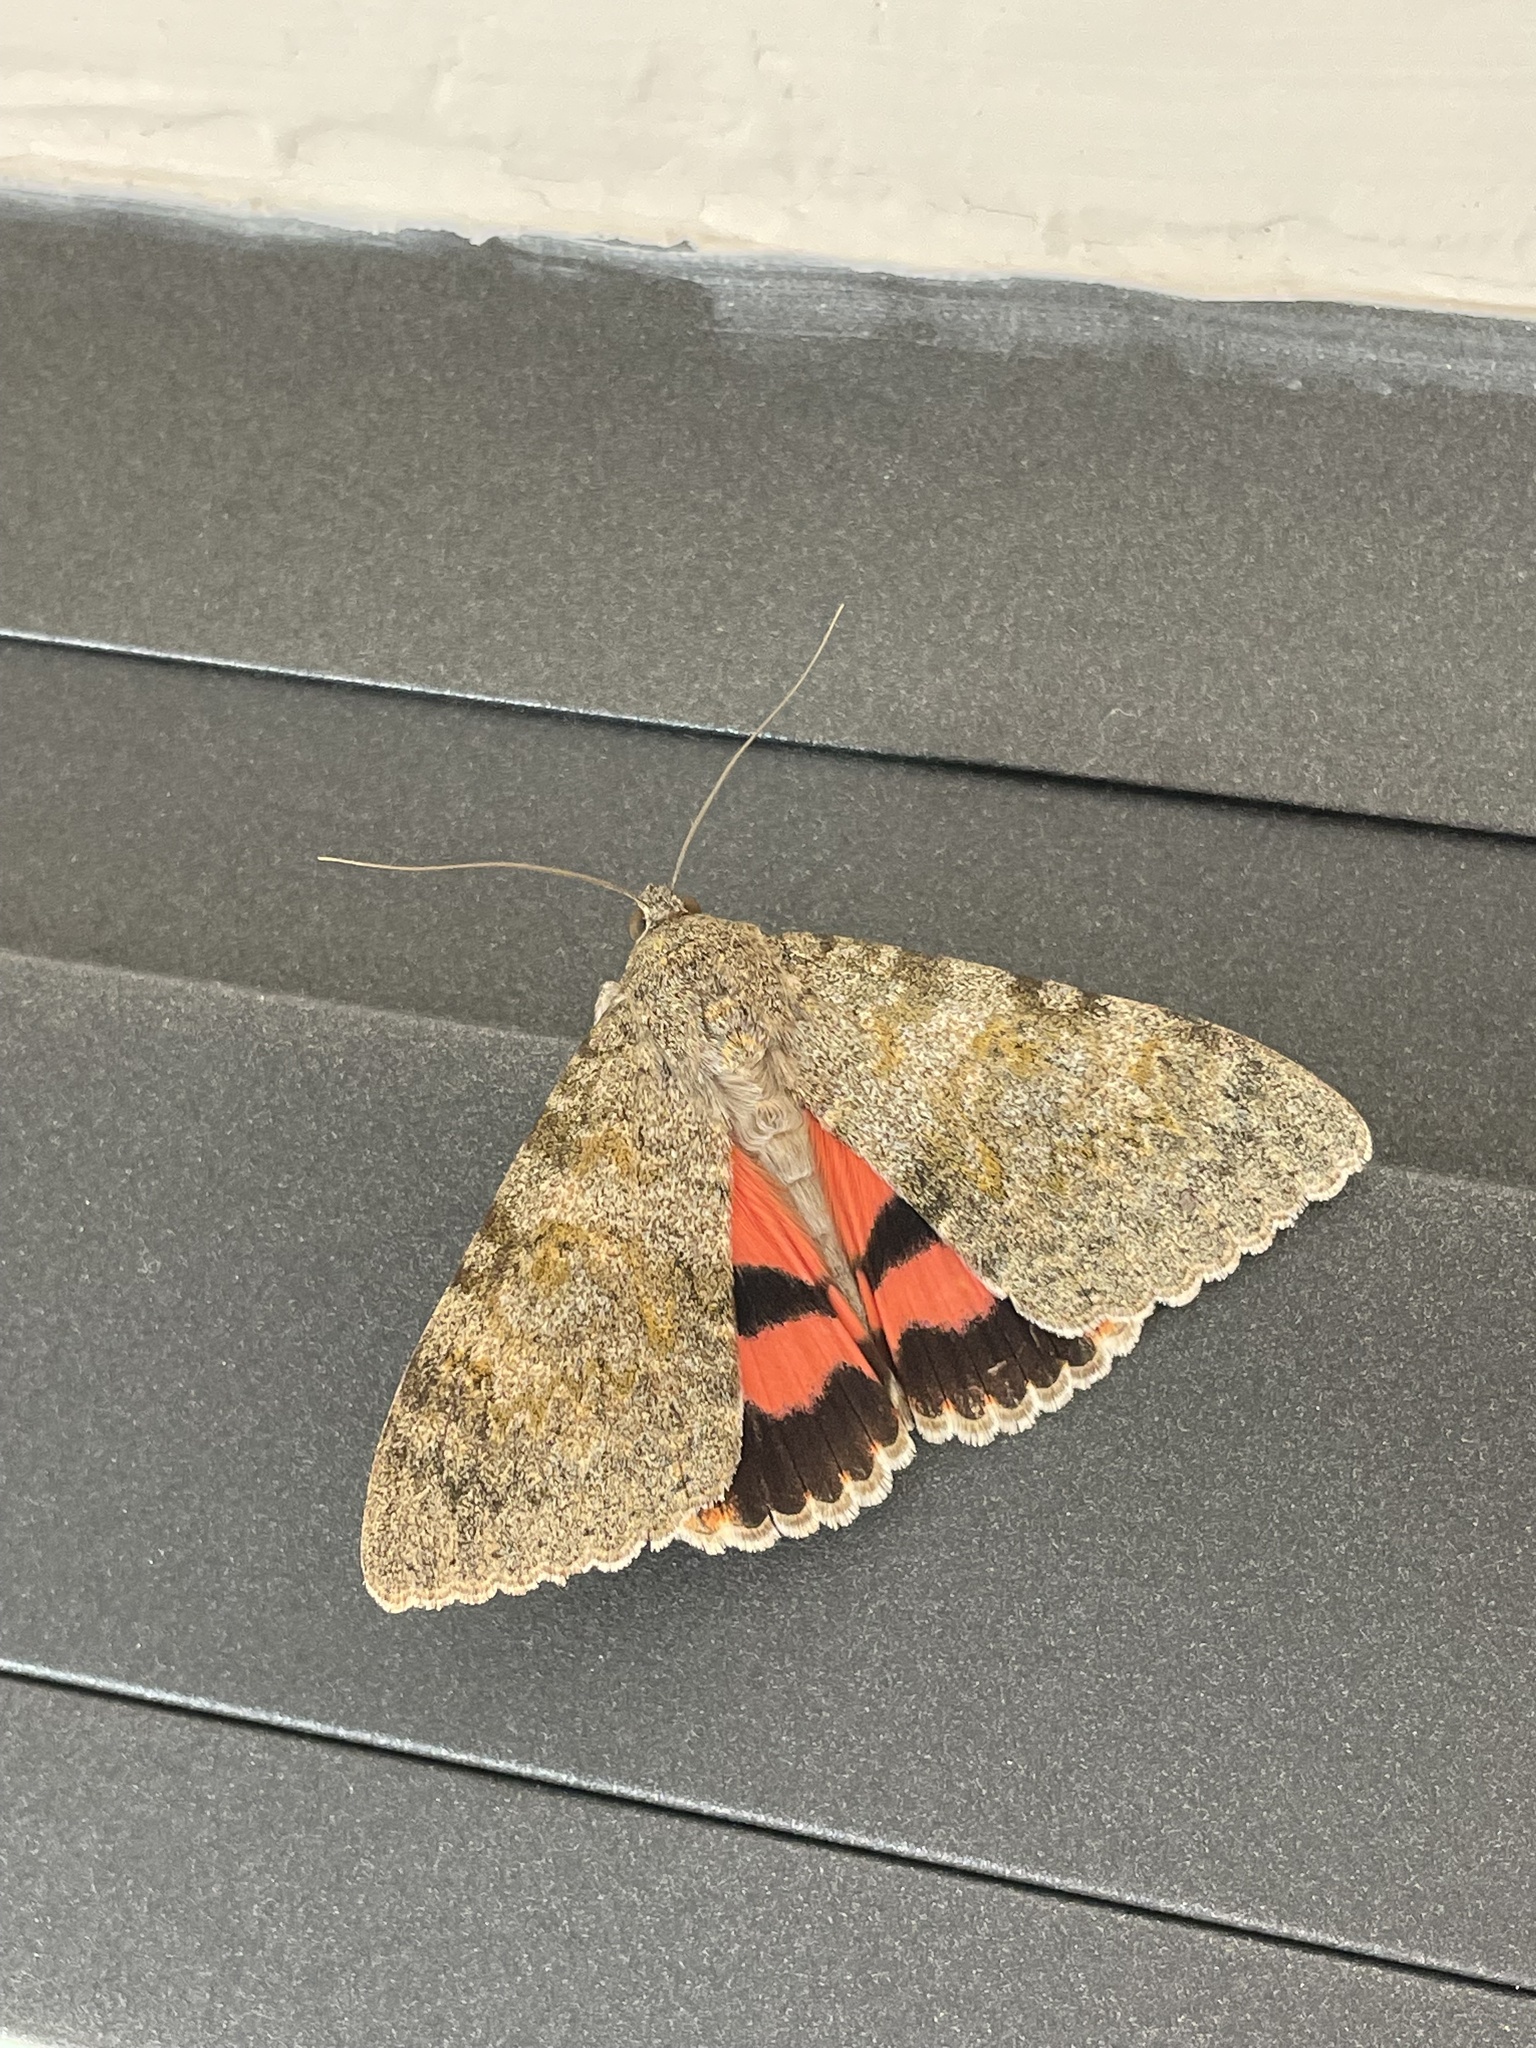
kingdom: Animalia
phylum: Arthropoda
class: Insecta
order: Lepidoptera
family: Erebidae
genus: Catocala
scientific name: Catocala elocata
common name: French red underwing
